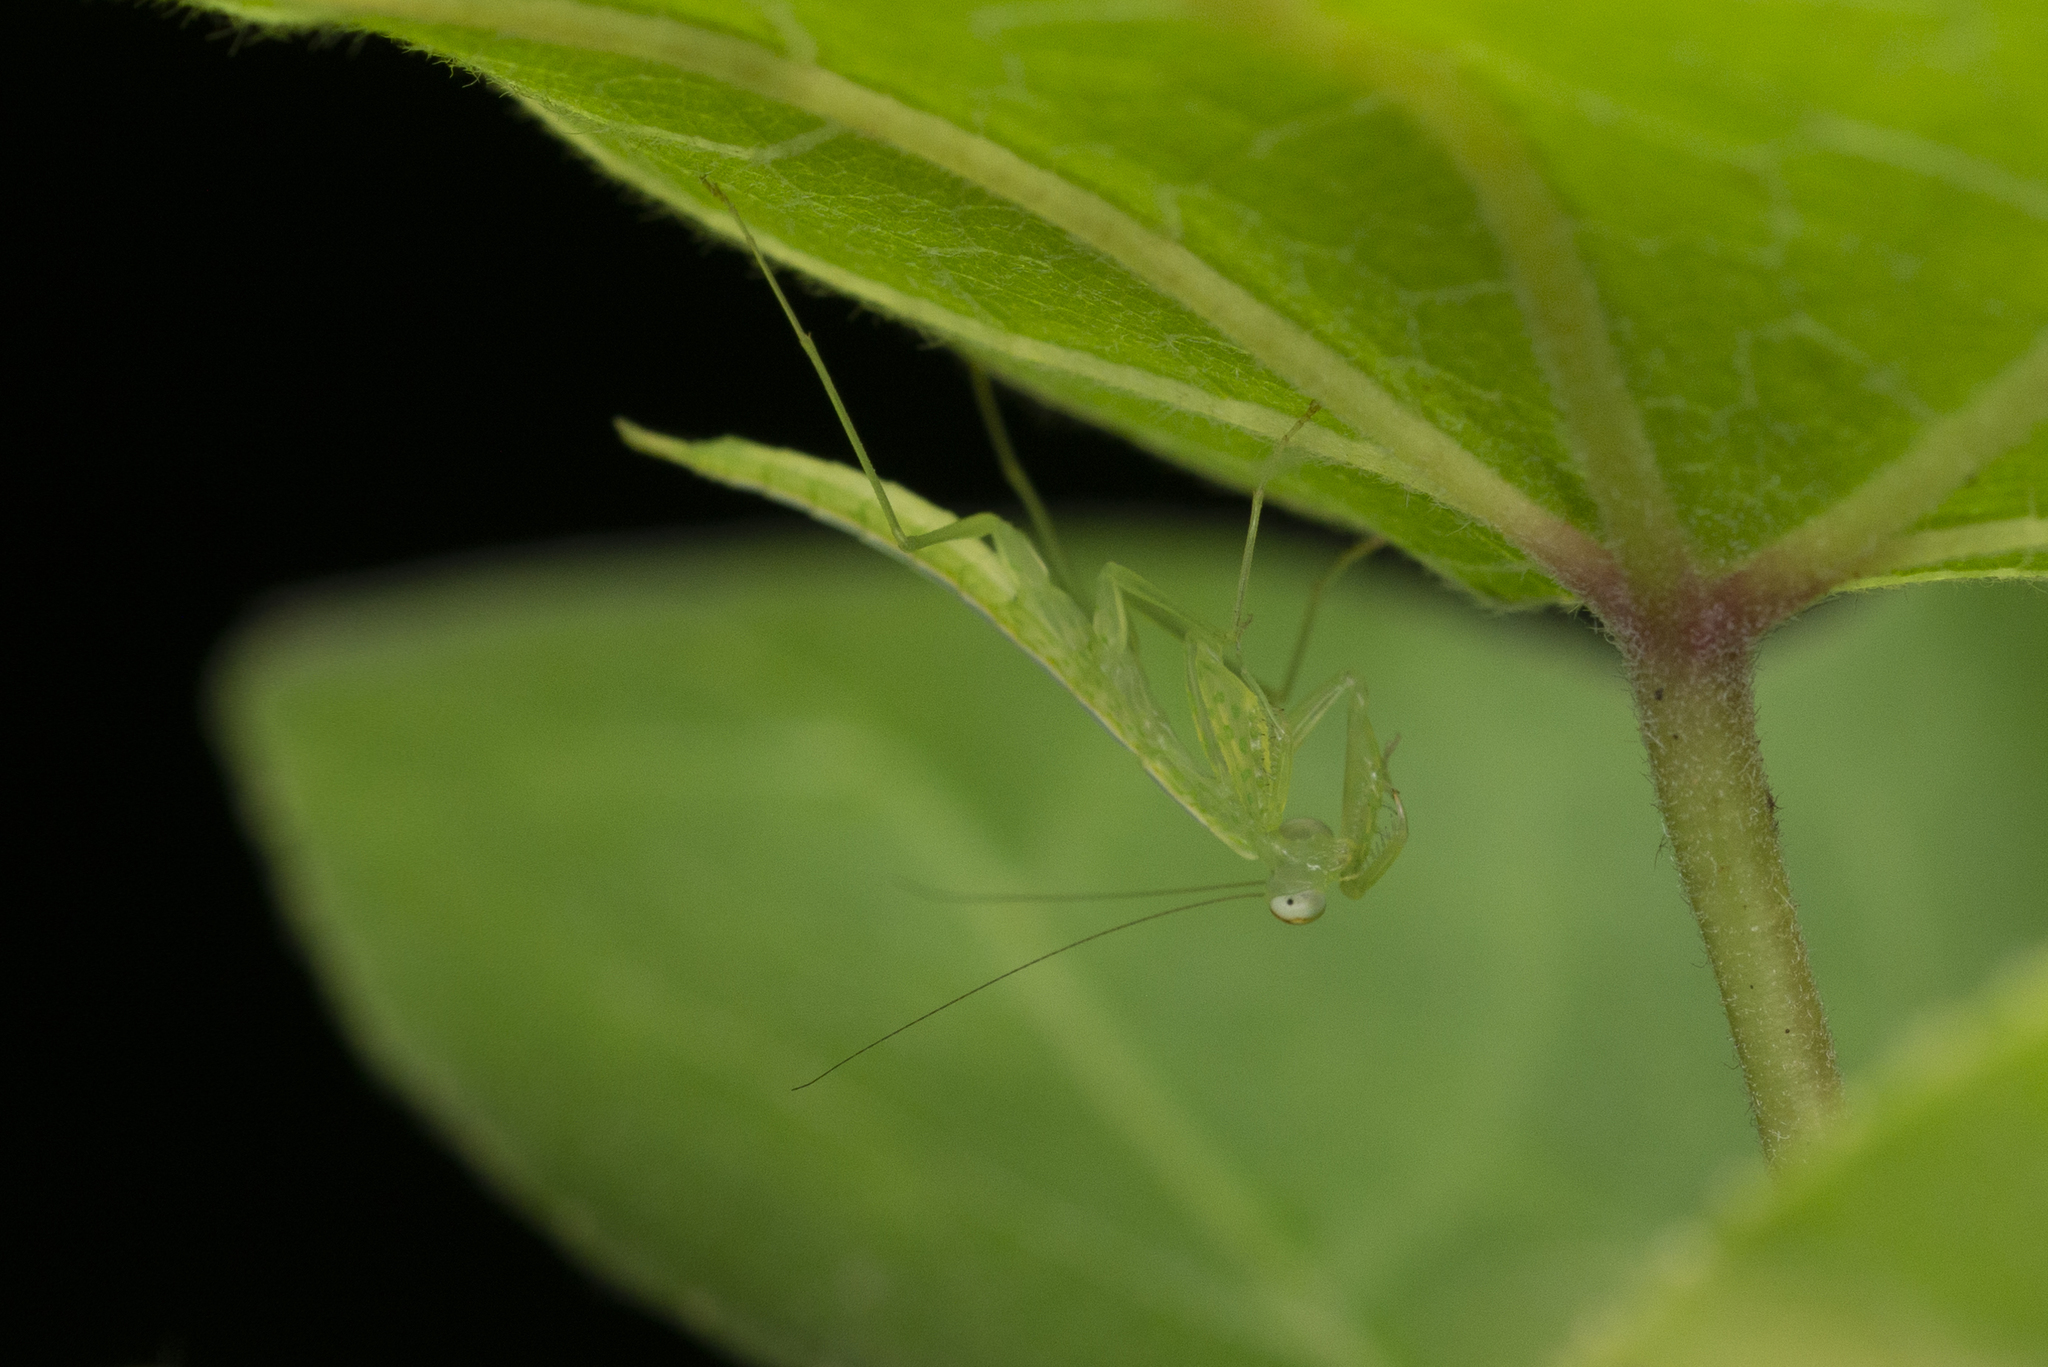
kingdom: Animalia
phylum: Arthropoda
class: Insecta
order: Mantodea
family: Nanomantidae
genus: Tropidomantis
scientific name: Tropidomantis gressitti
